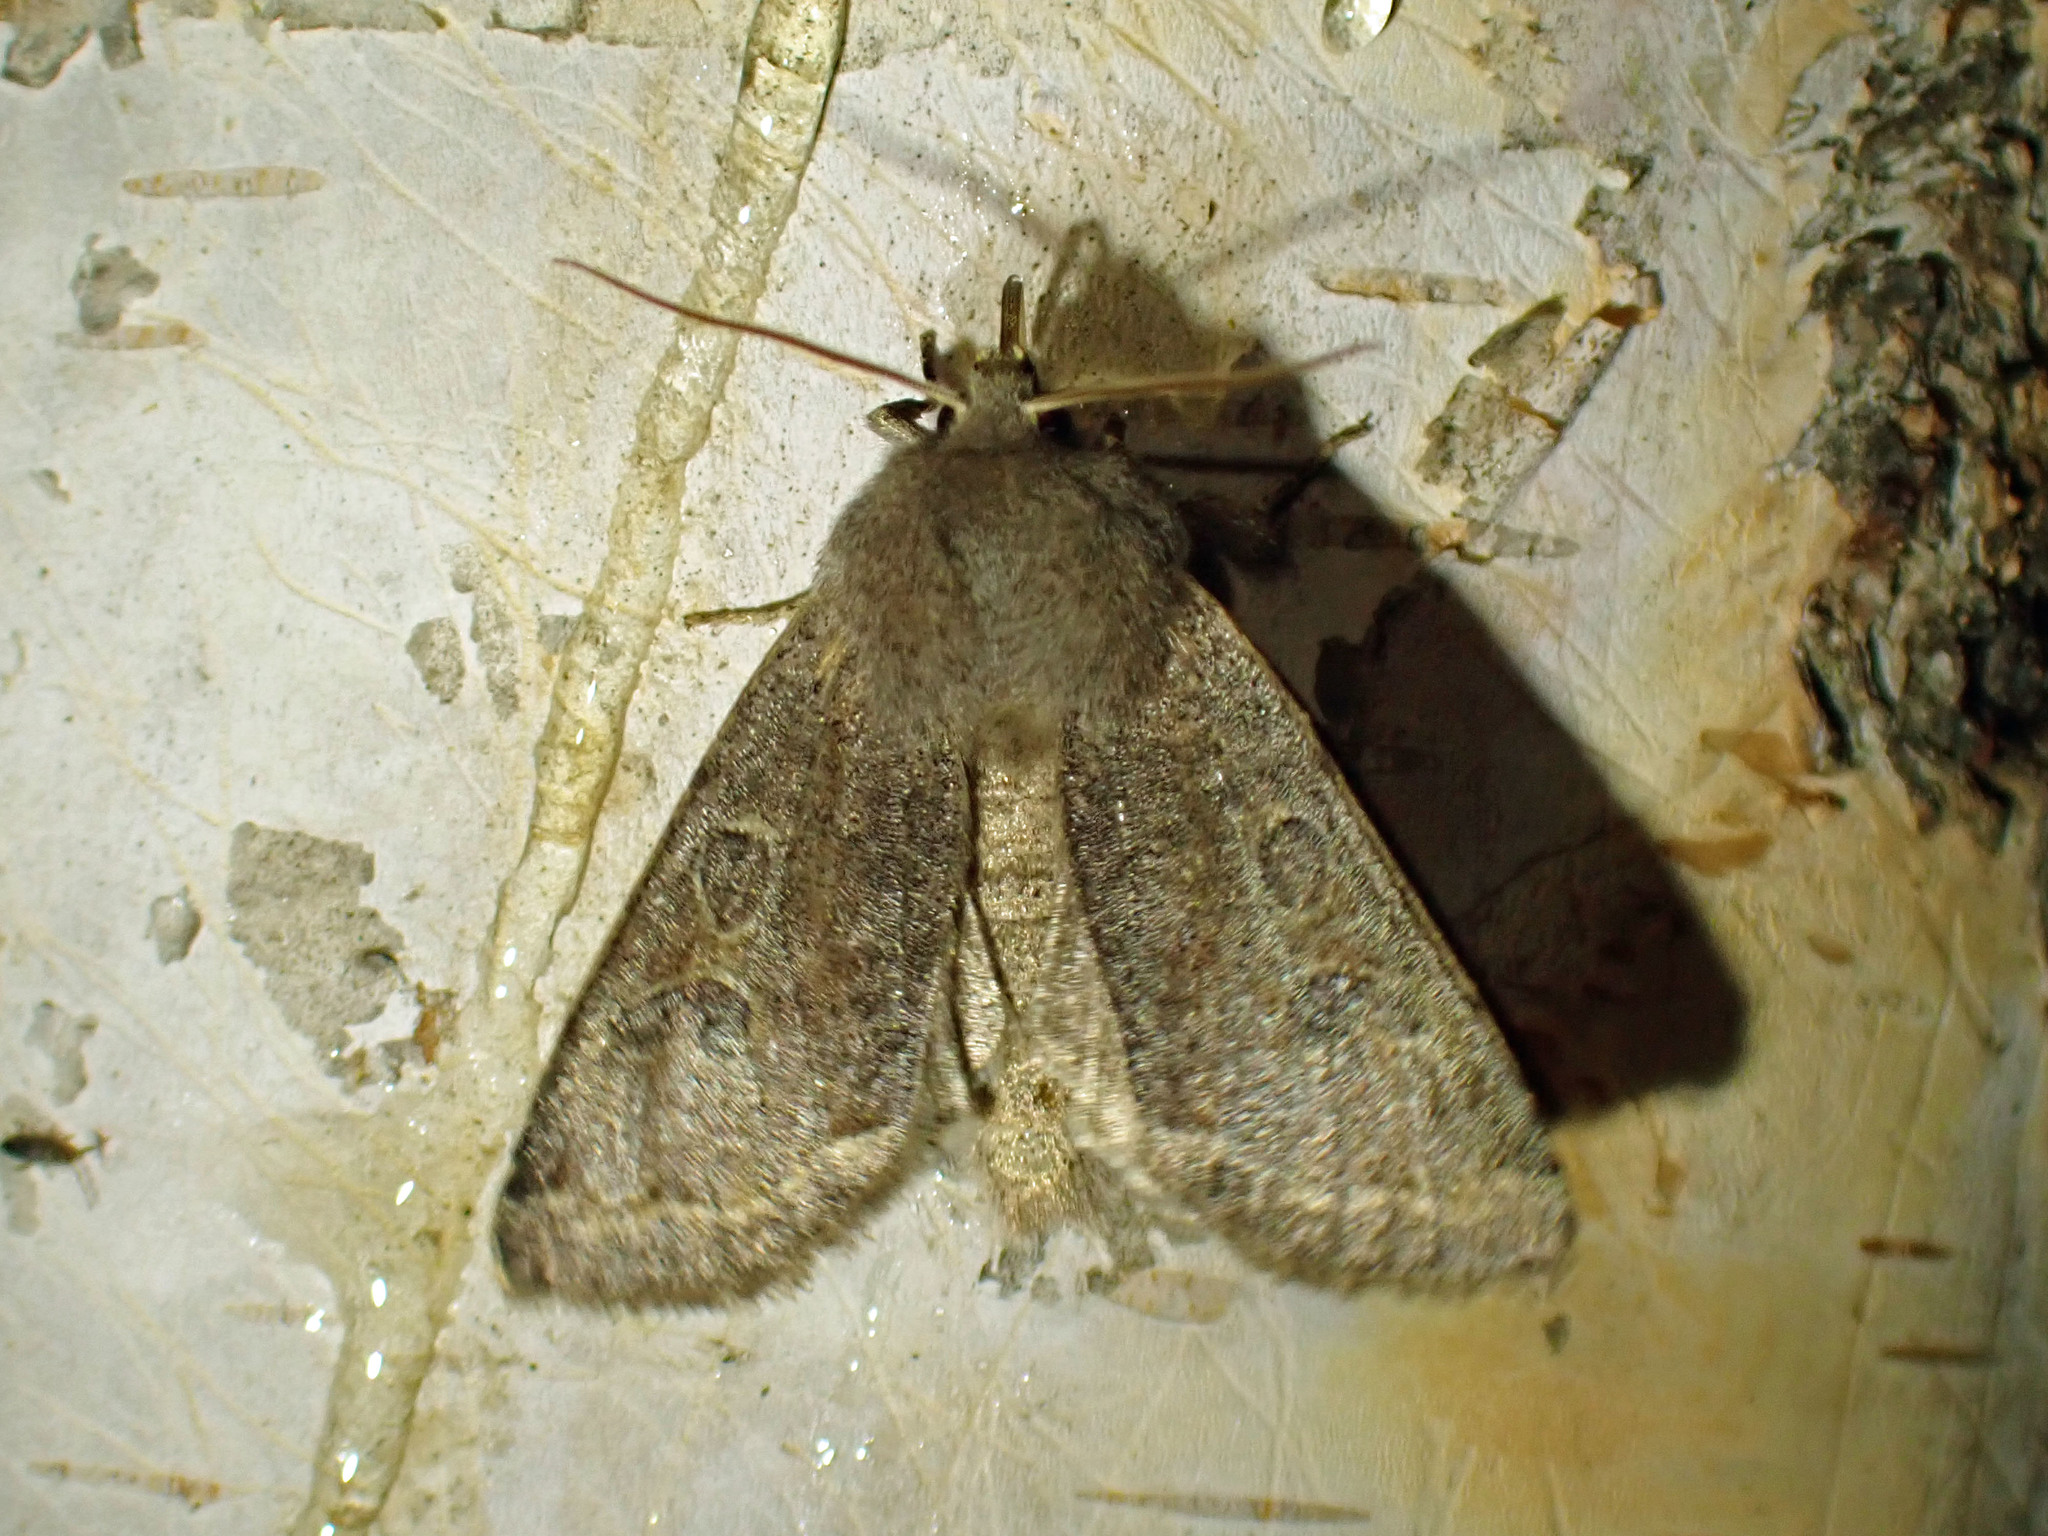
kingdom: Animalia
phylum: Arthropoda
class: Insecta
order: Lepidoptera
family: Noctuidae
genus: Orthosia
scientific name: Orthosia hibisci
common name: Green fruitworm
